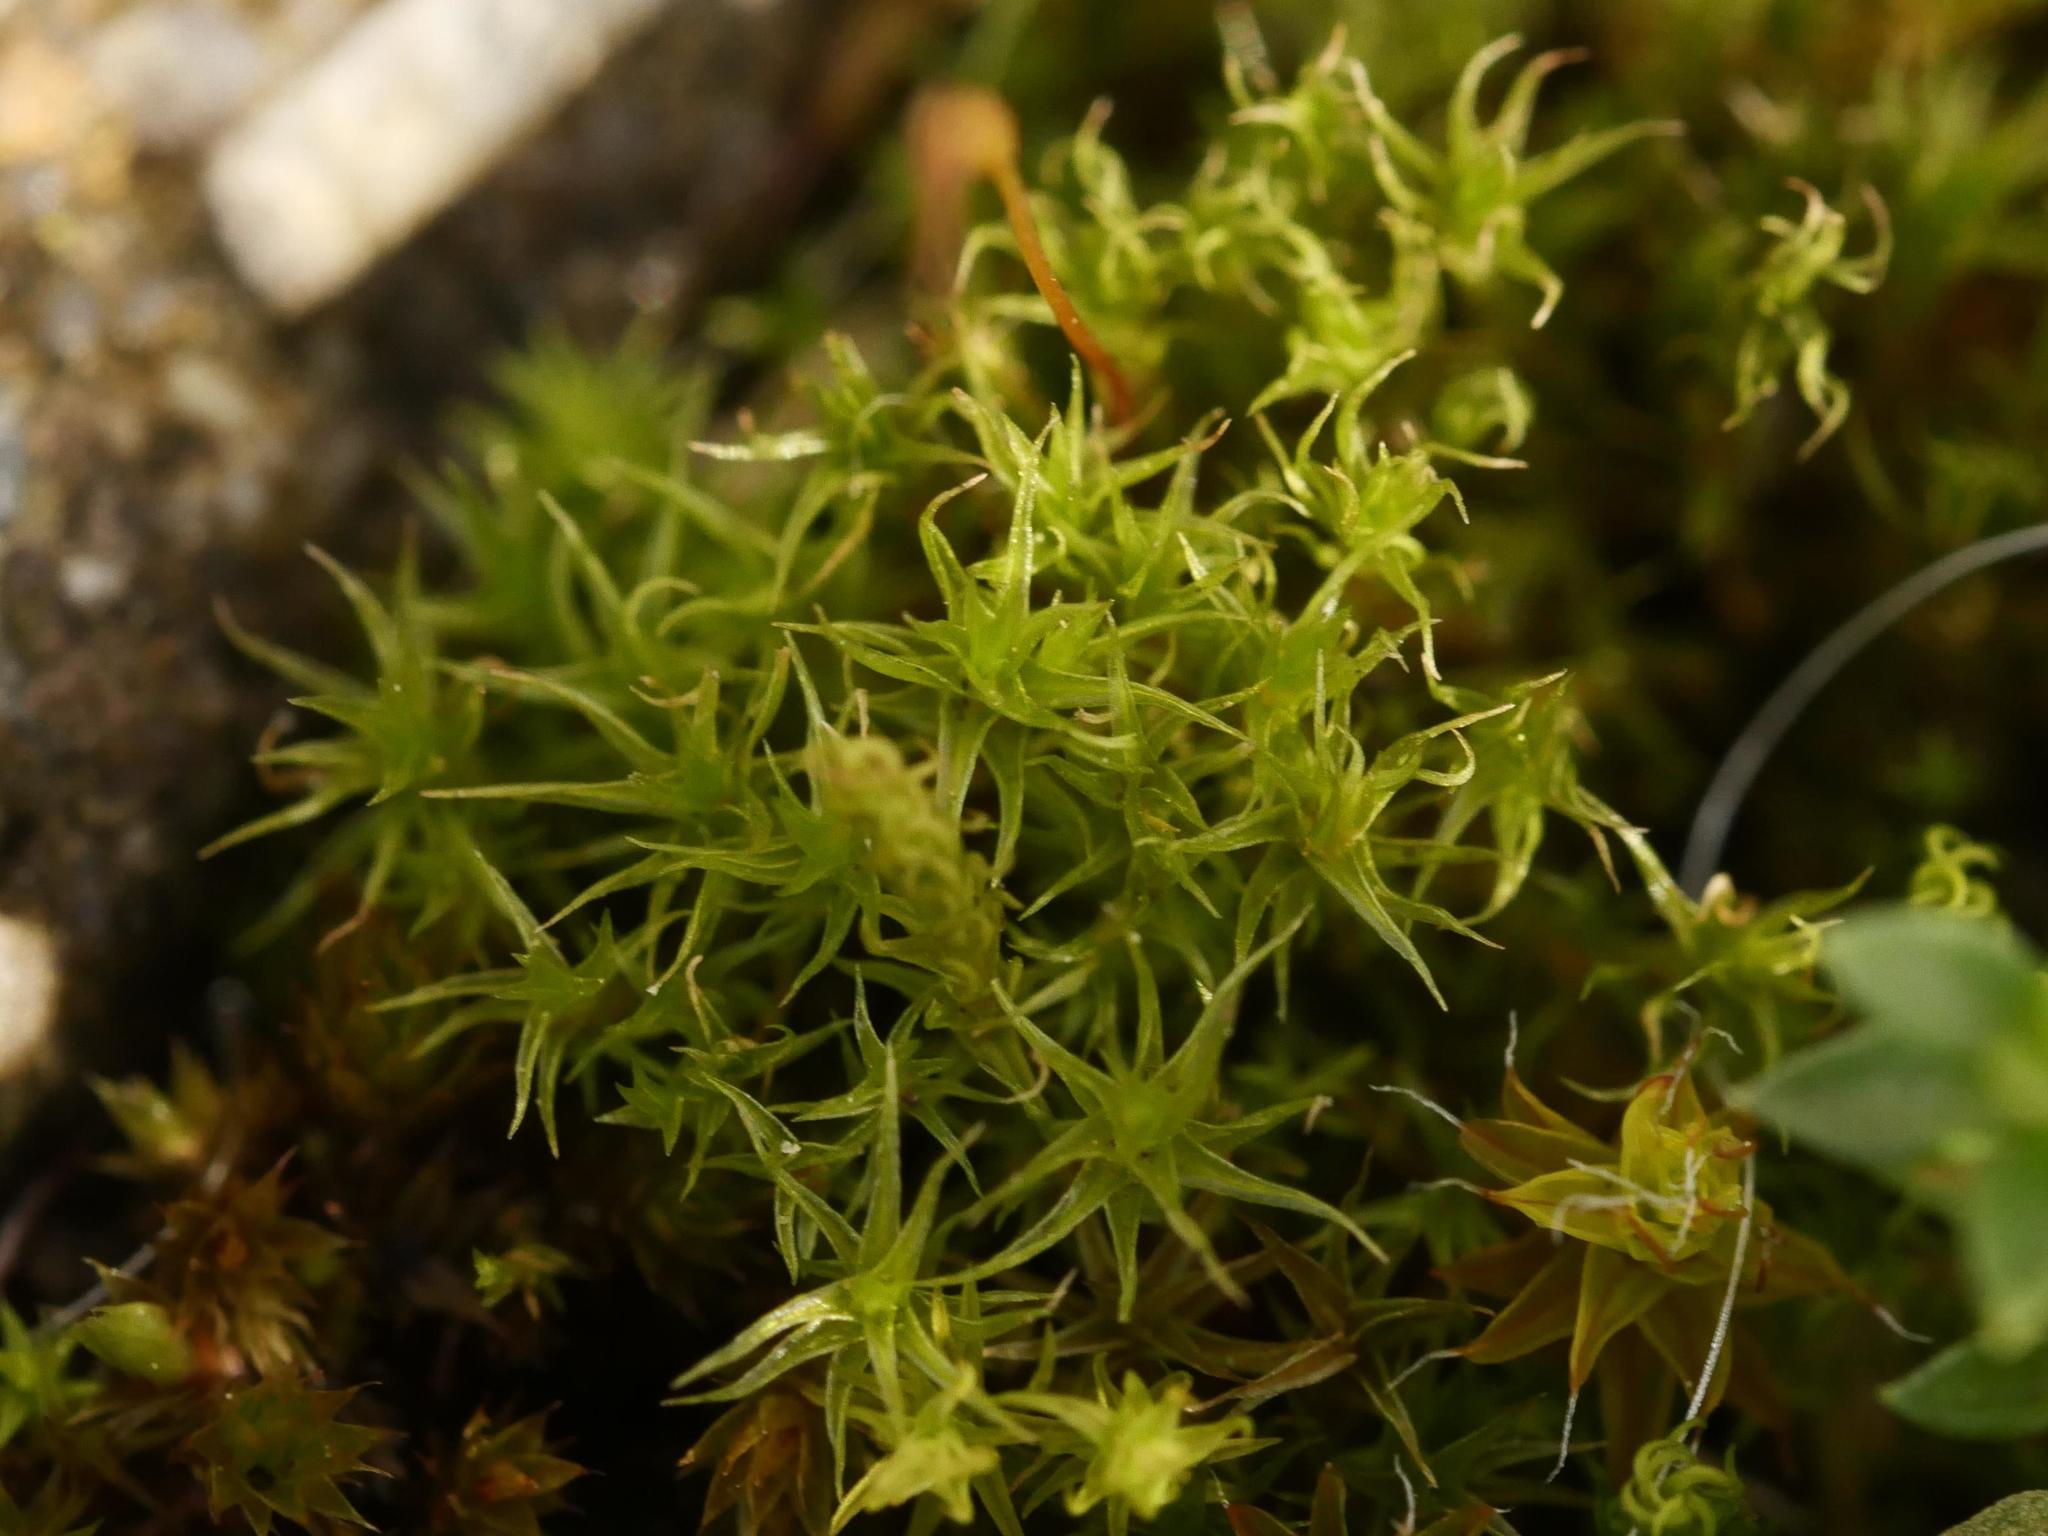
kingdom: Plantae
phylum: Bryophyta
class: Bryopsida
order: Dicranales
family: Ditrichaceae
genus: Ceratodon
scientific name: Ceratodon purpureus
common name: Redshank
